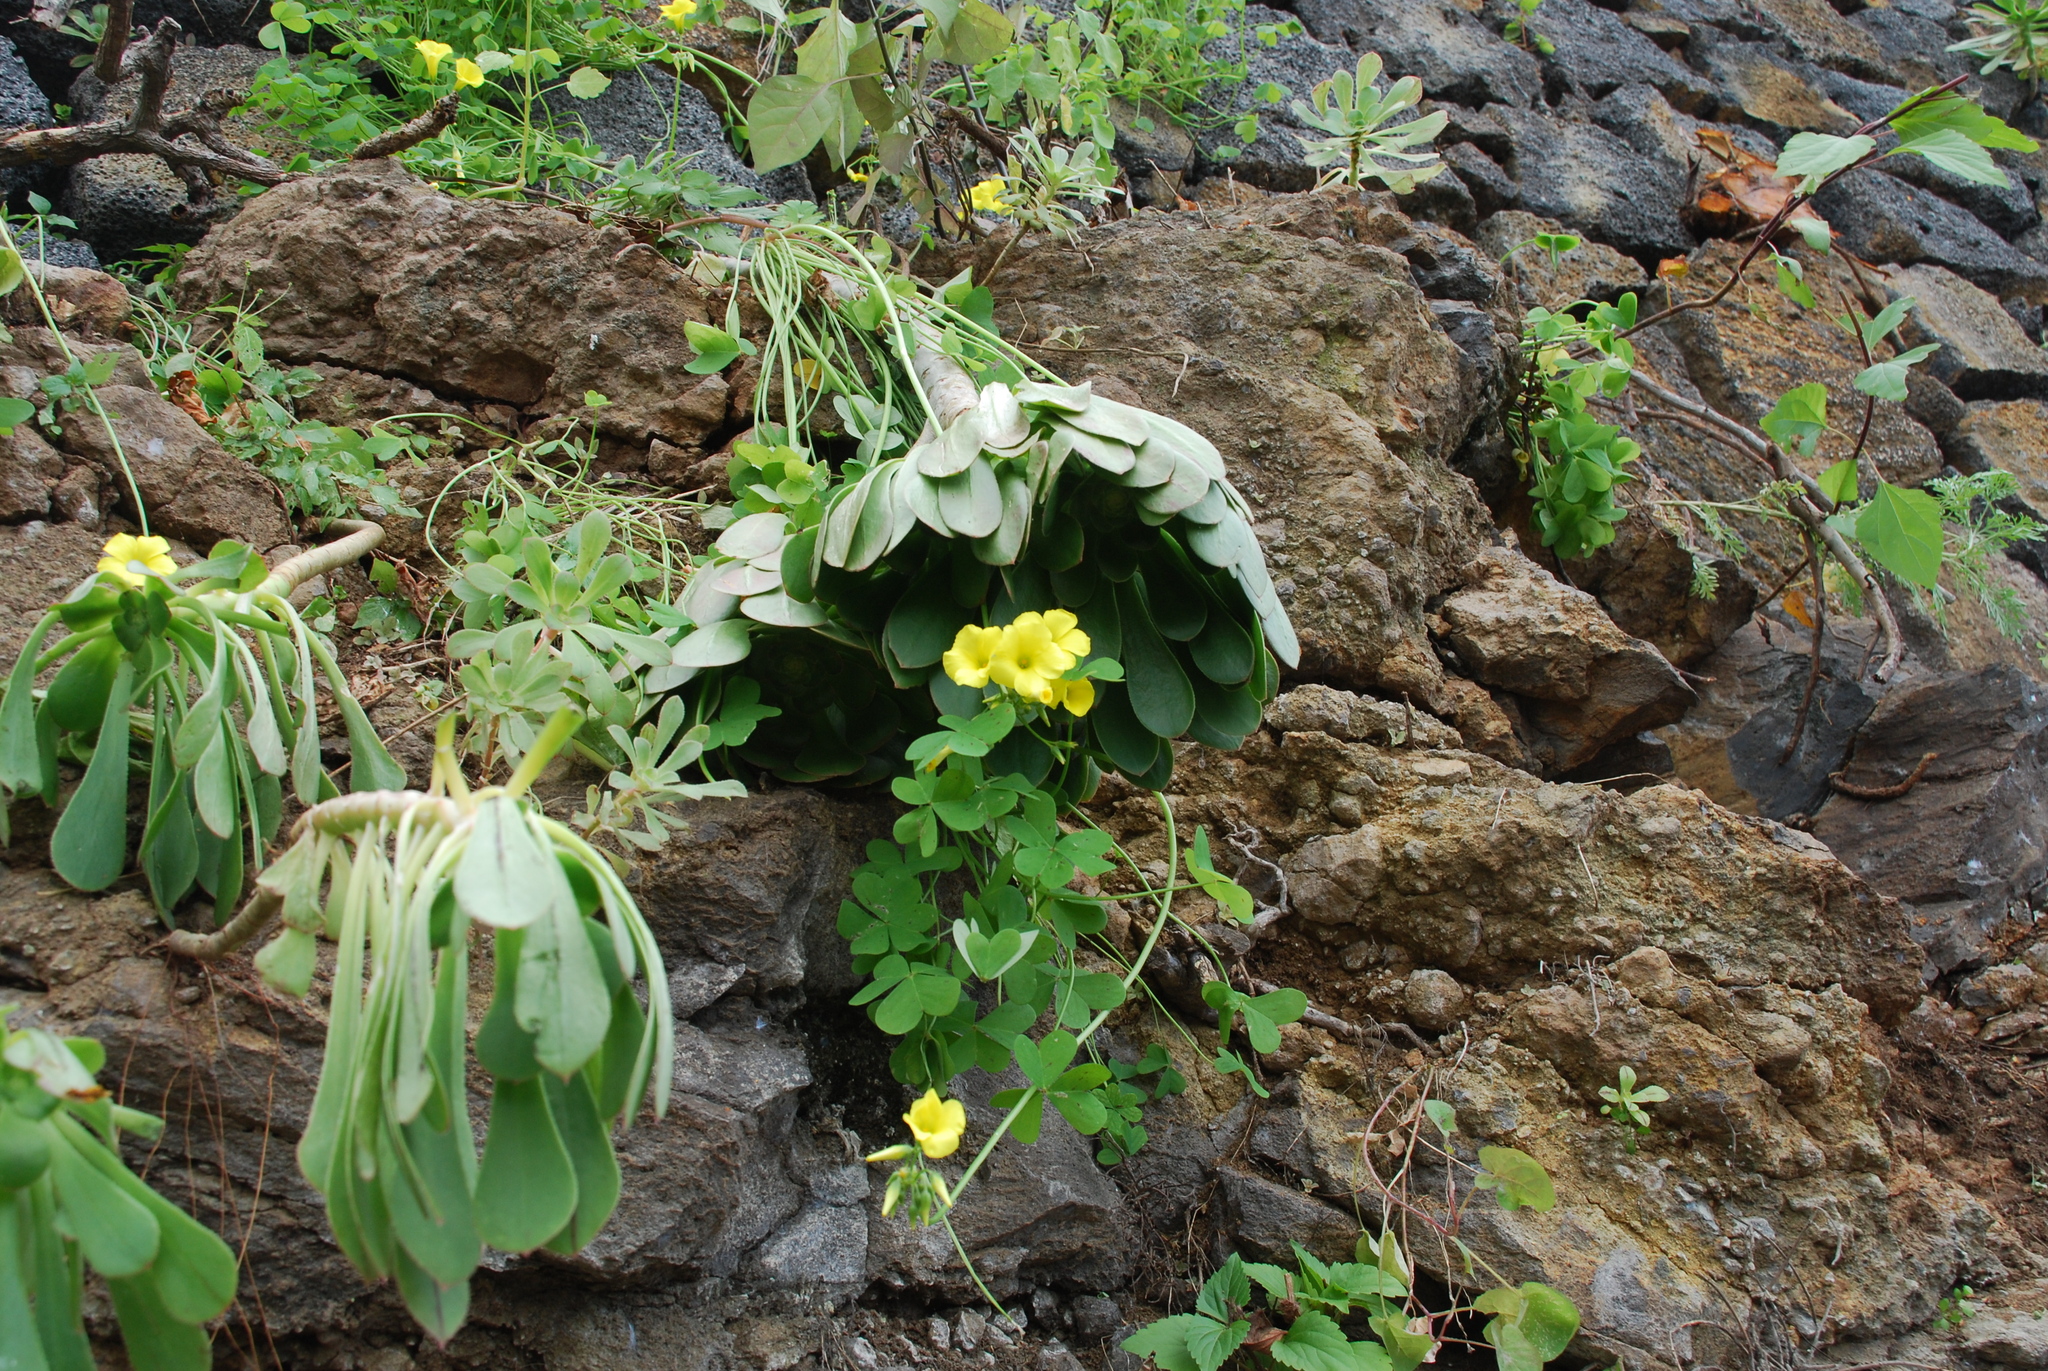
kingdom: Plantae
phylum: Tracheophyta
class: Magnoliopsida
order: Saxifragales
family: Crassulaceae
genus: Aeonium
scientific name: Aeonium urbicum
